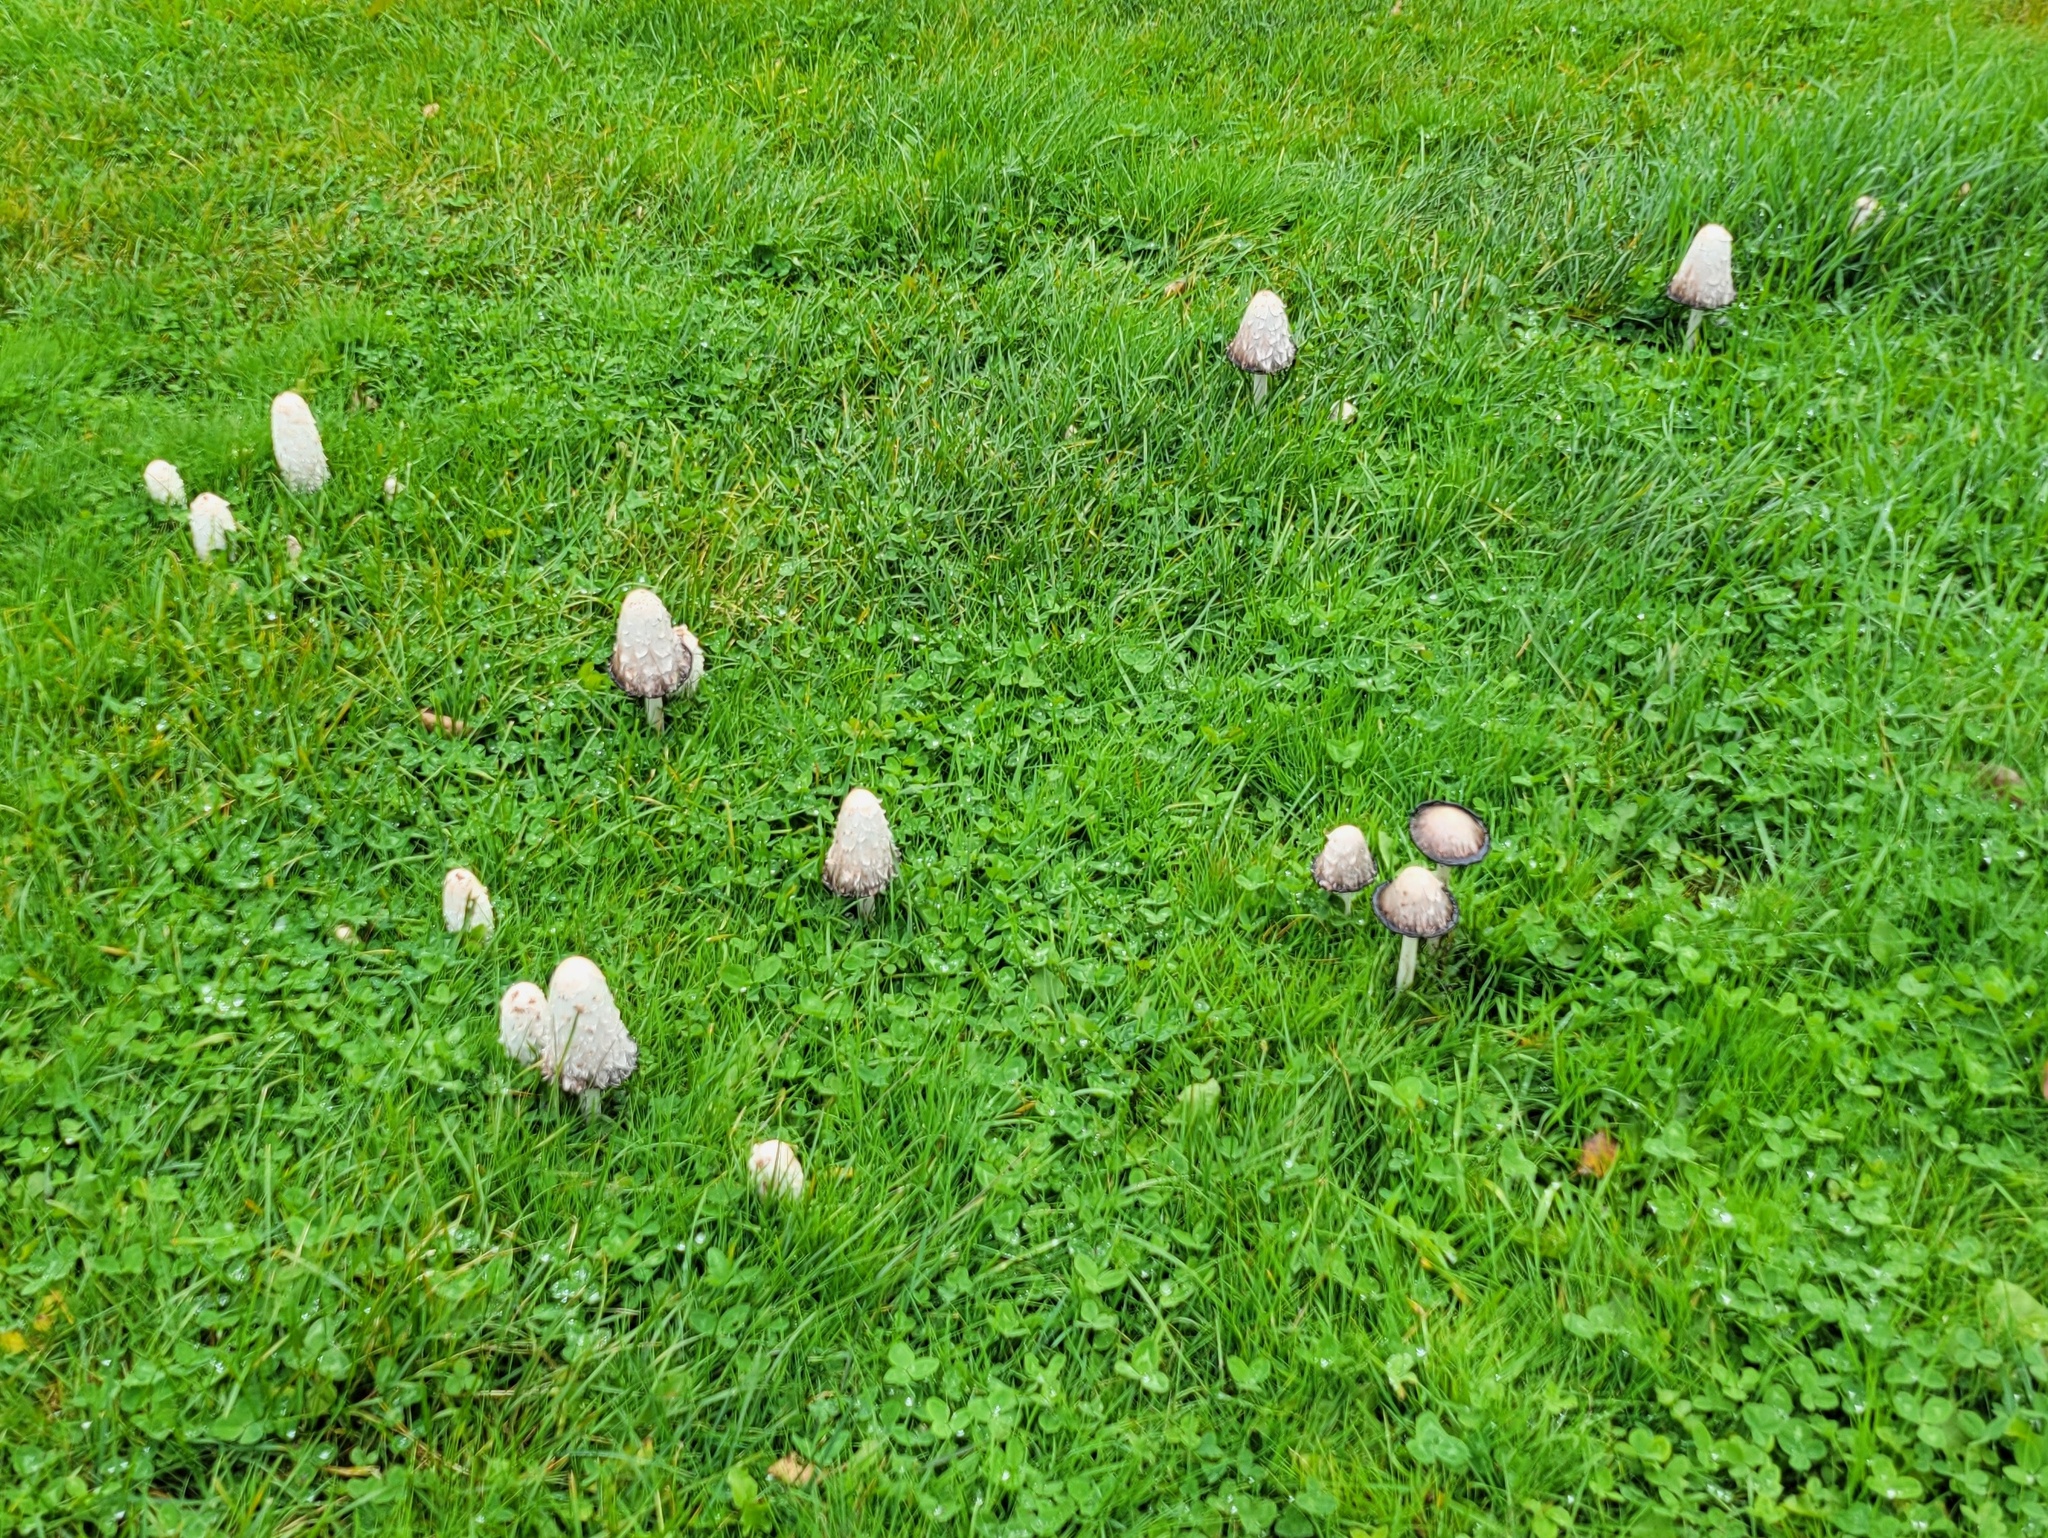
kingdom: Fungi
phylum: Basidiomycota
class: Agaricomycetes
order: Agaricales
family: Agaricaceae
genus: Coprinus
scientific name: Coprinus comatus
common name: Lawyer's wig
